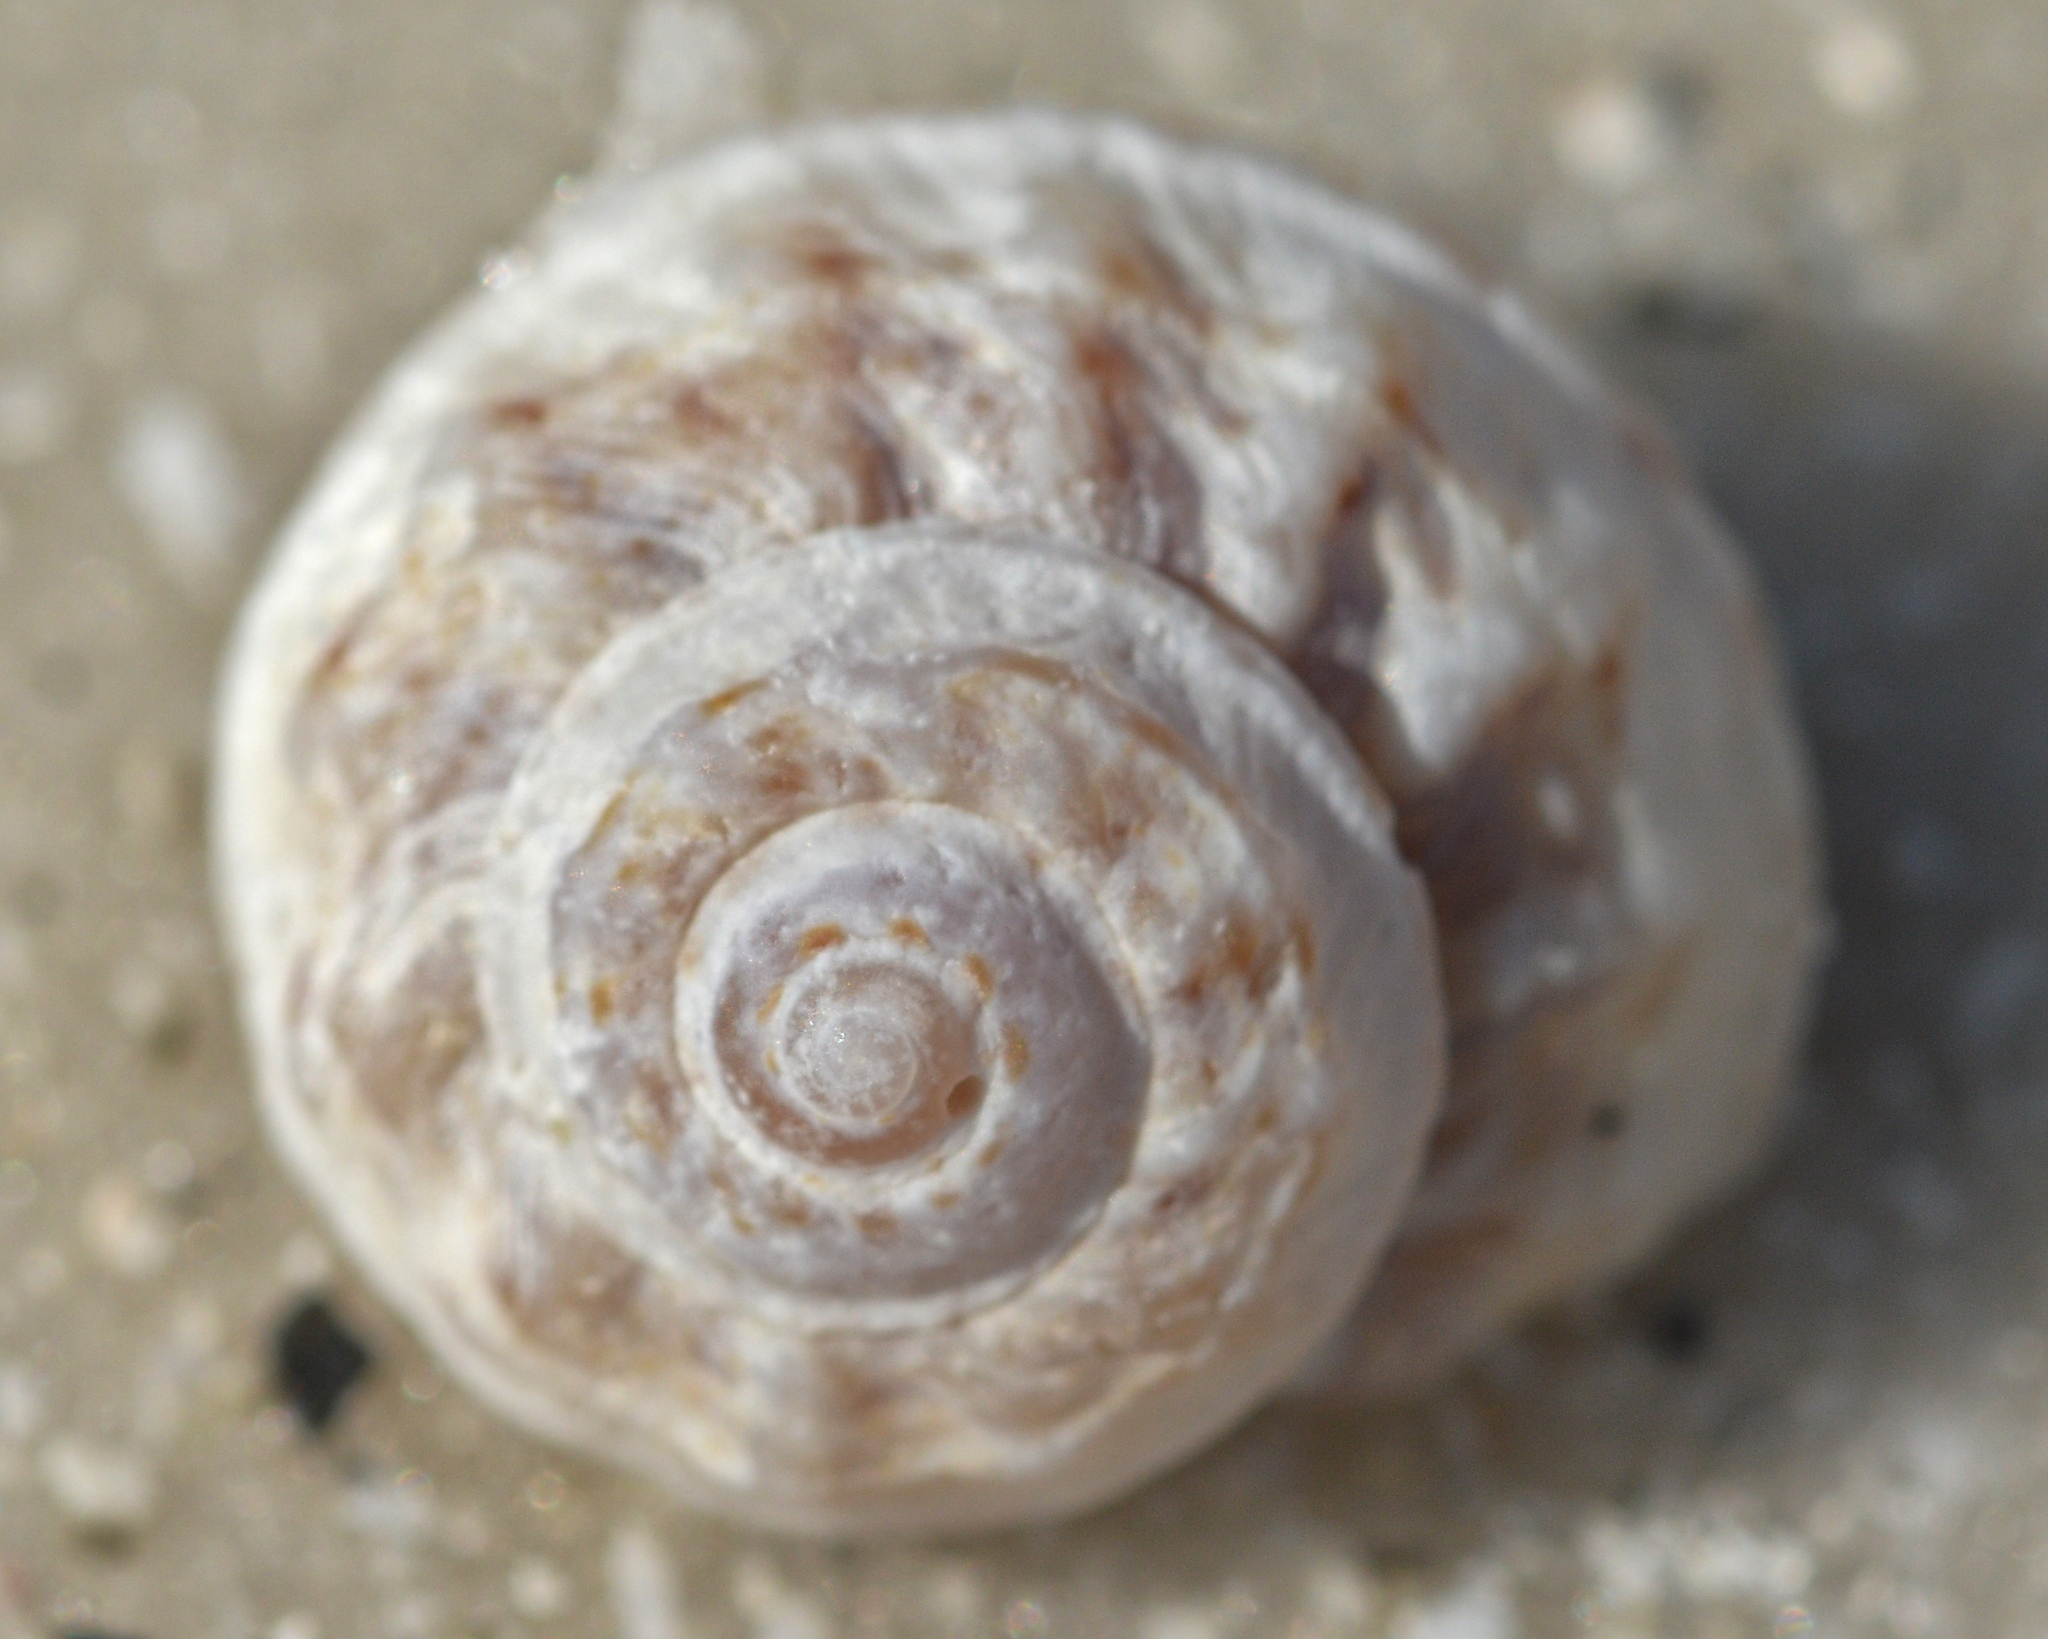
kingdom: Animalia
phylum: Mollusca
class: Gastropoda
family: Modulidae
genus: Modulus
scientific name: Modulus modulus
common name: Atlantic modulus
